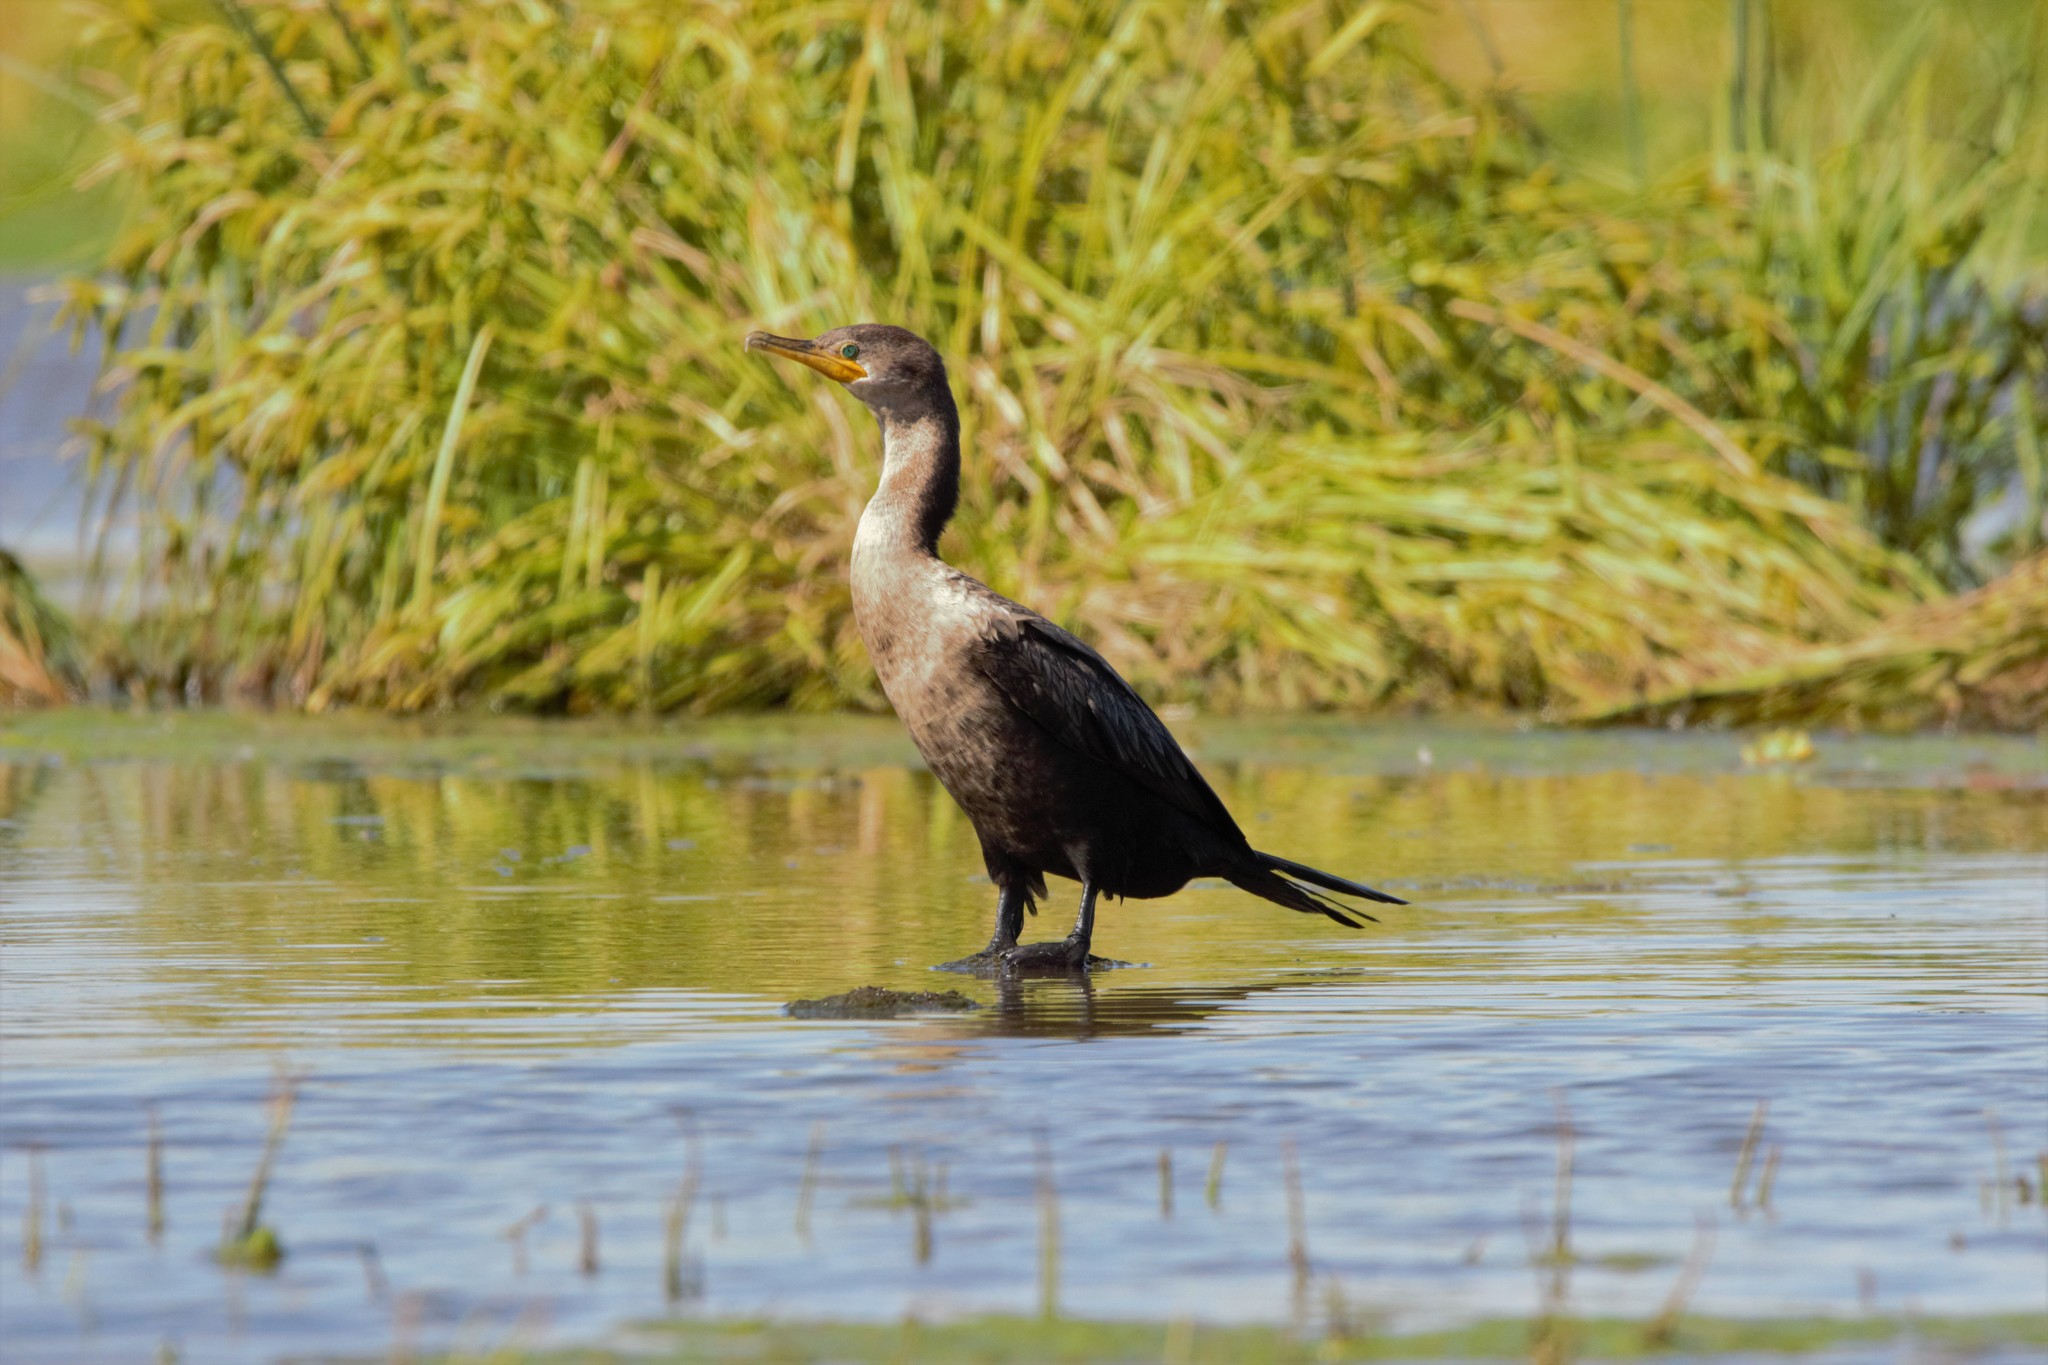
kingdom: Animalia
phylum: Chordata
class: Aves
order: Suliformes
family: Phalacrocoracidae
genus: Phalacrocorax
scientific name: Phalacrocorax brasilianus
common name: Neotropic cormorant
